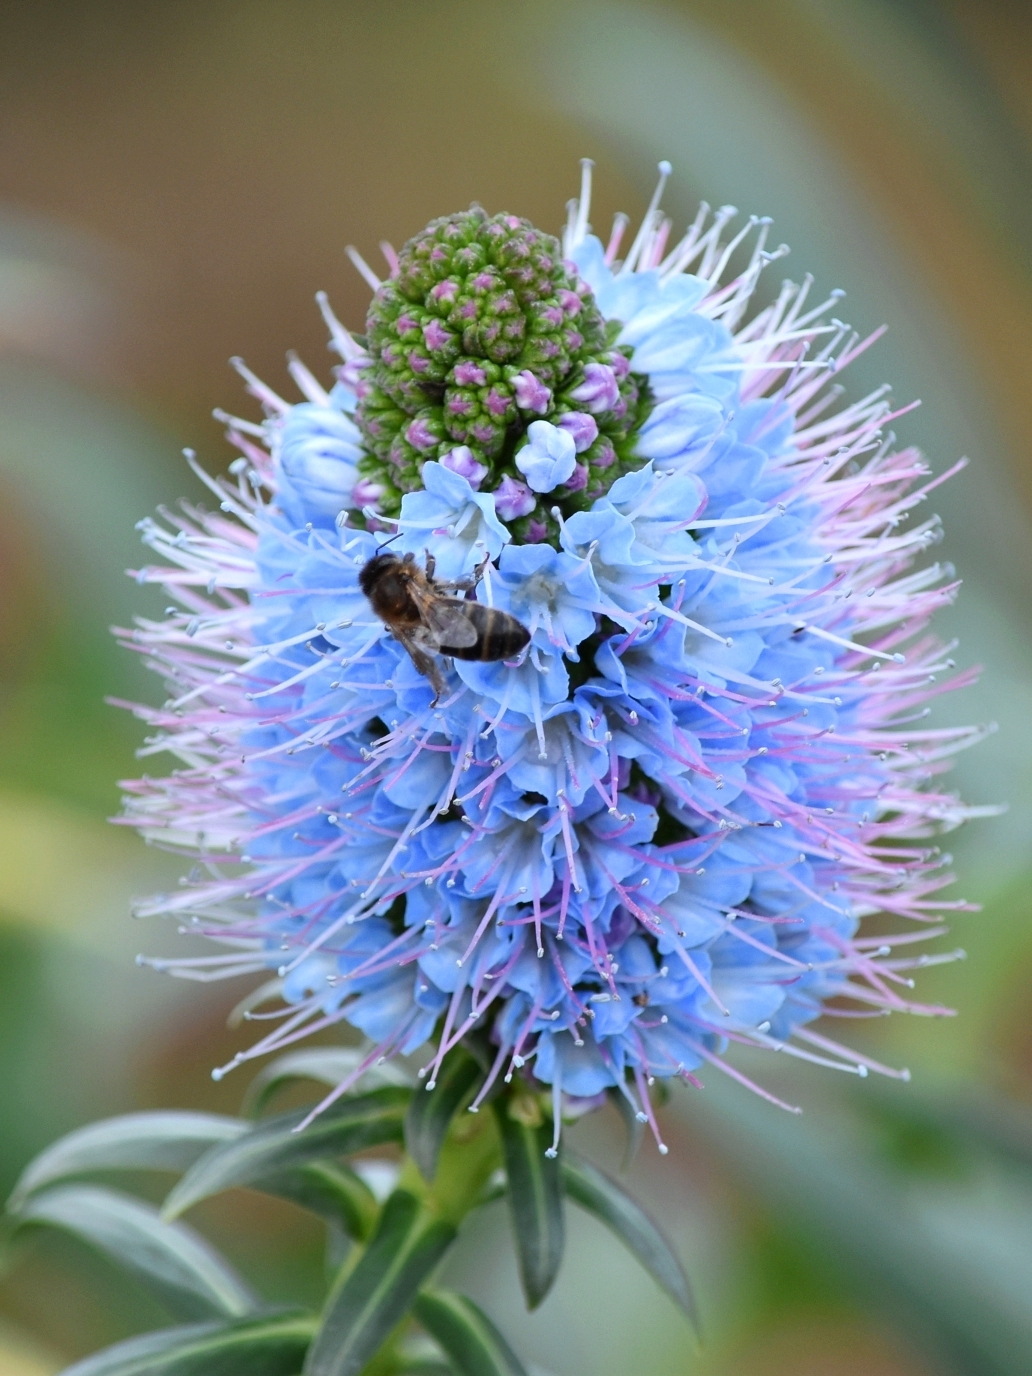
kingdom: Plantae
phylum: Tracheophyta
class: Magnoliopsida
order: Boraginales
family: Boraginaceae
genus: Echium
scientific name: Echium nervosum
